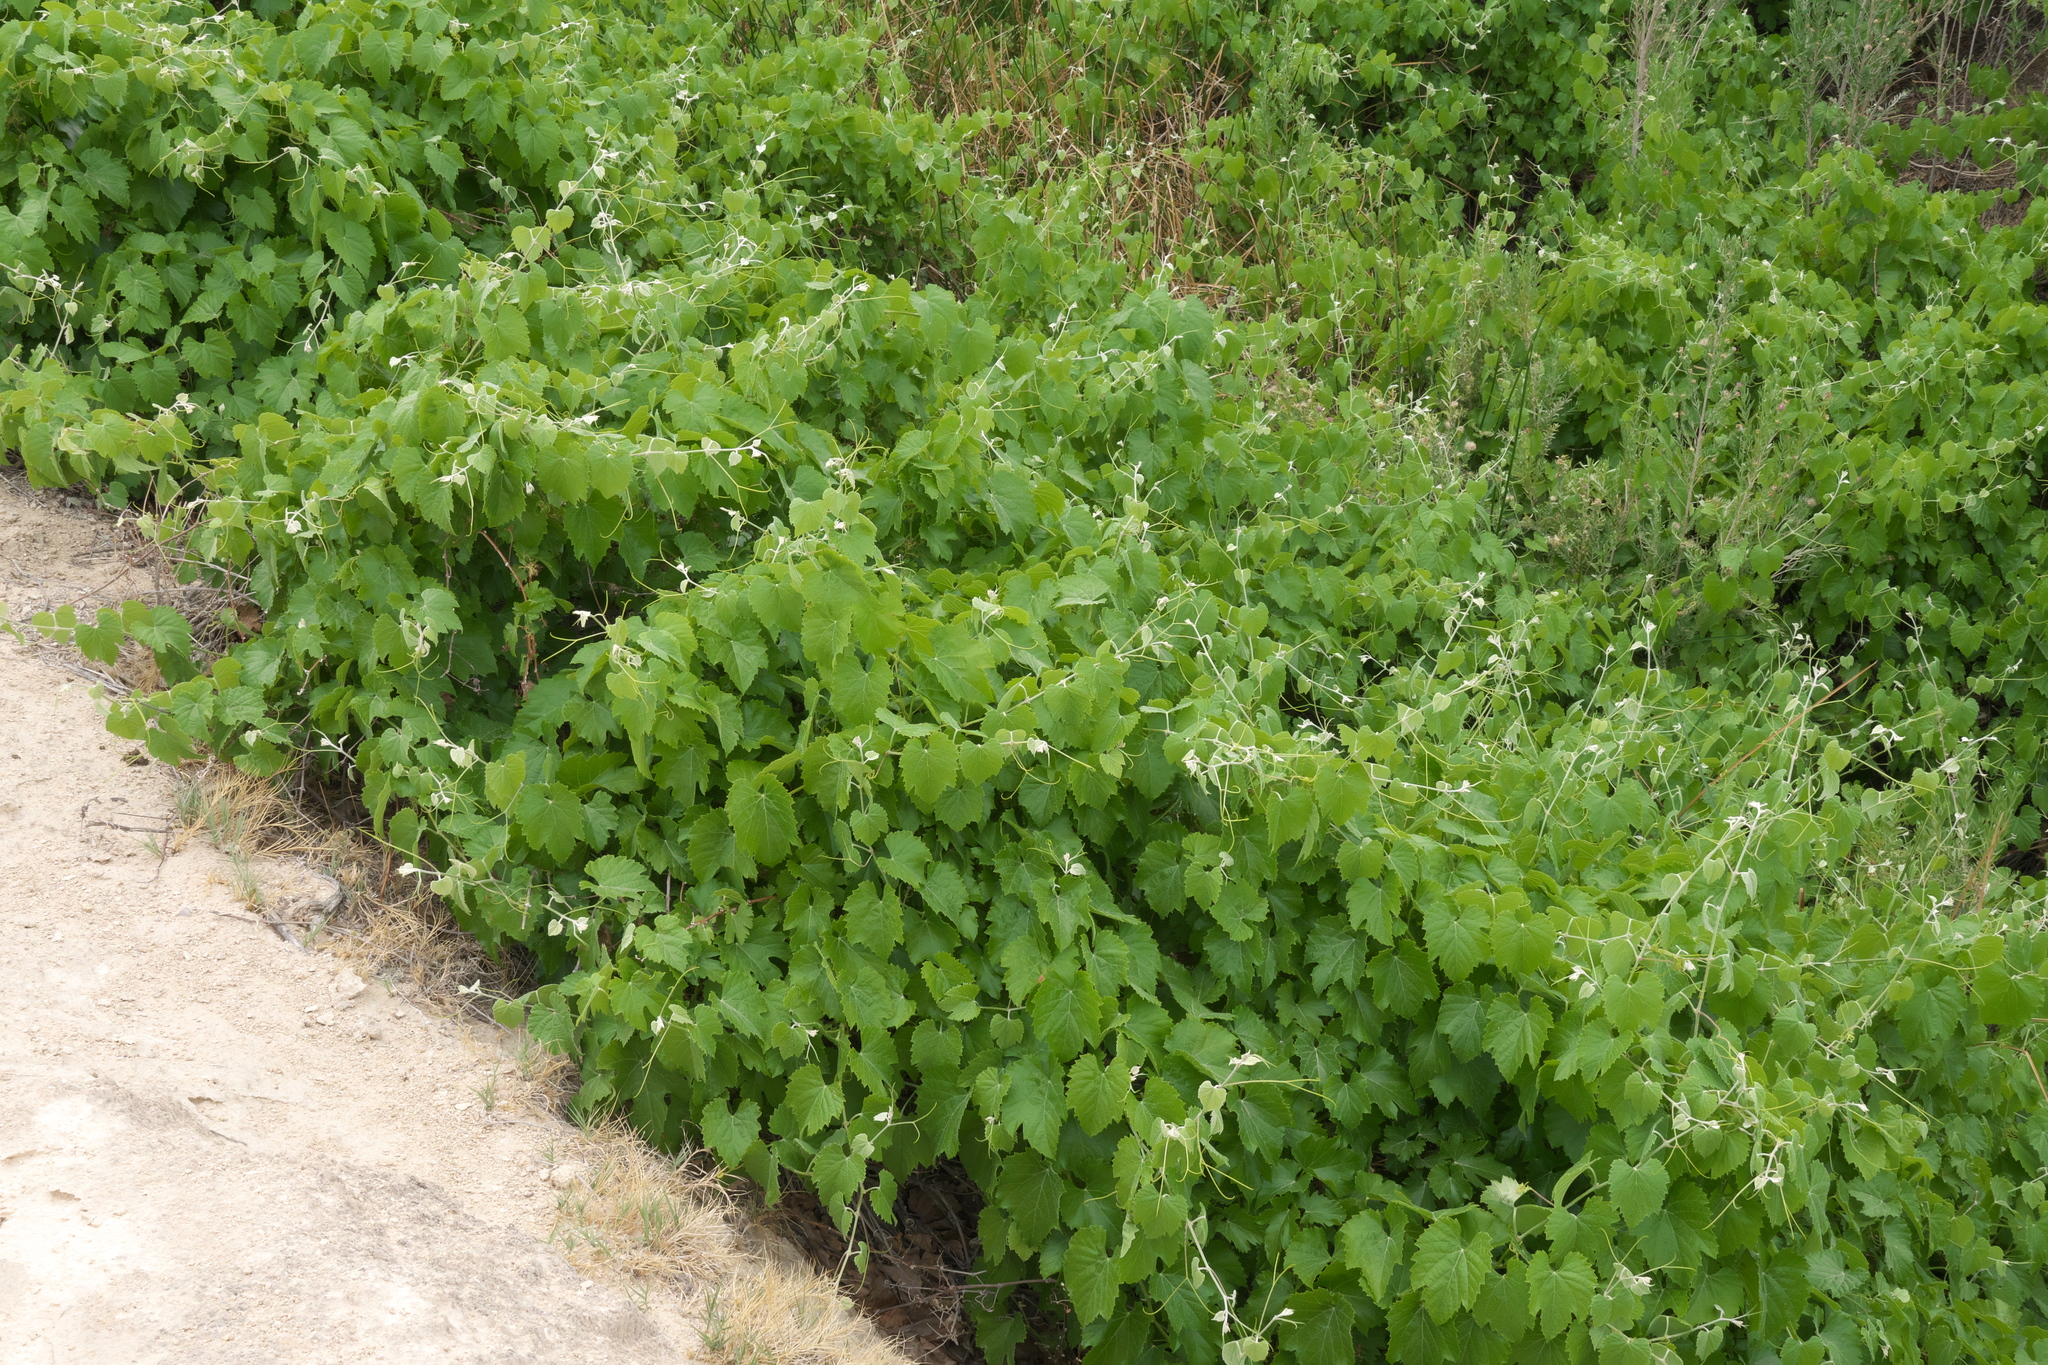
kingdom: Plantae
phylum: Tracheophyta
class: Magnoliopsida
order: Vitales
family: Vitaceae
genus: Vitis
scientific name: Vitis arizonica
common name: Canyon grape
